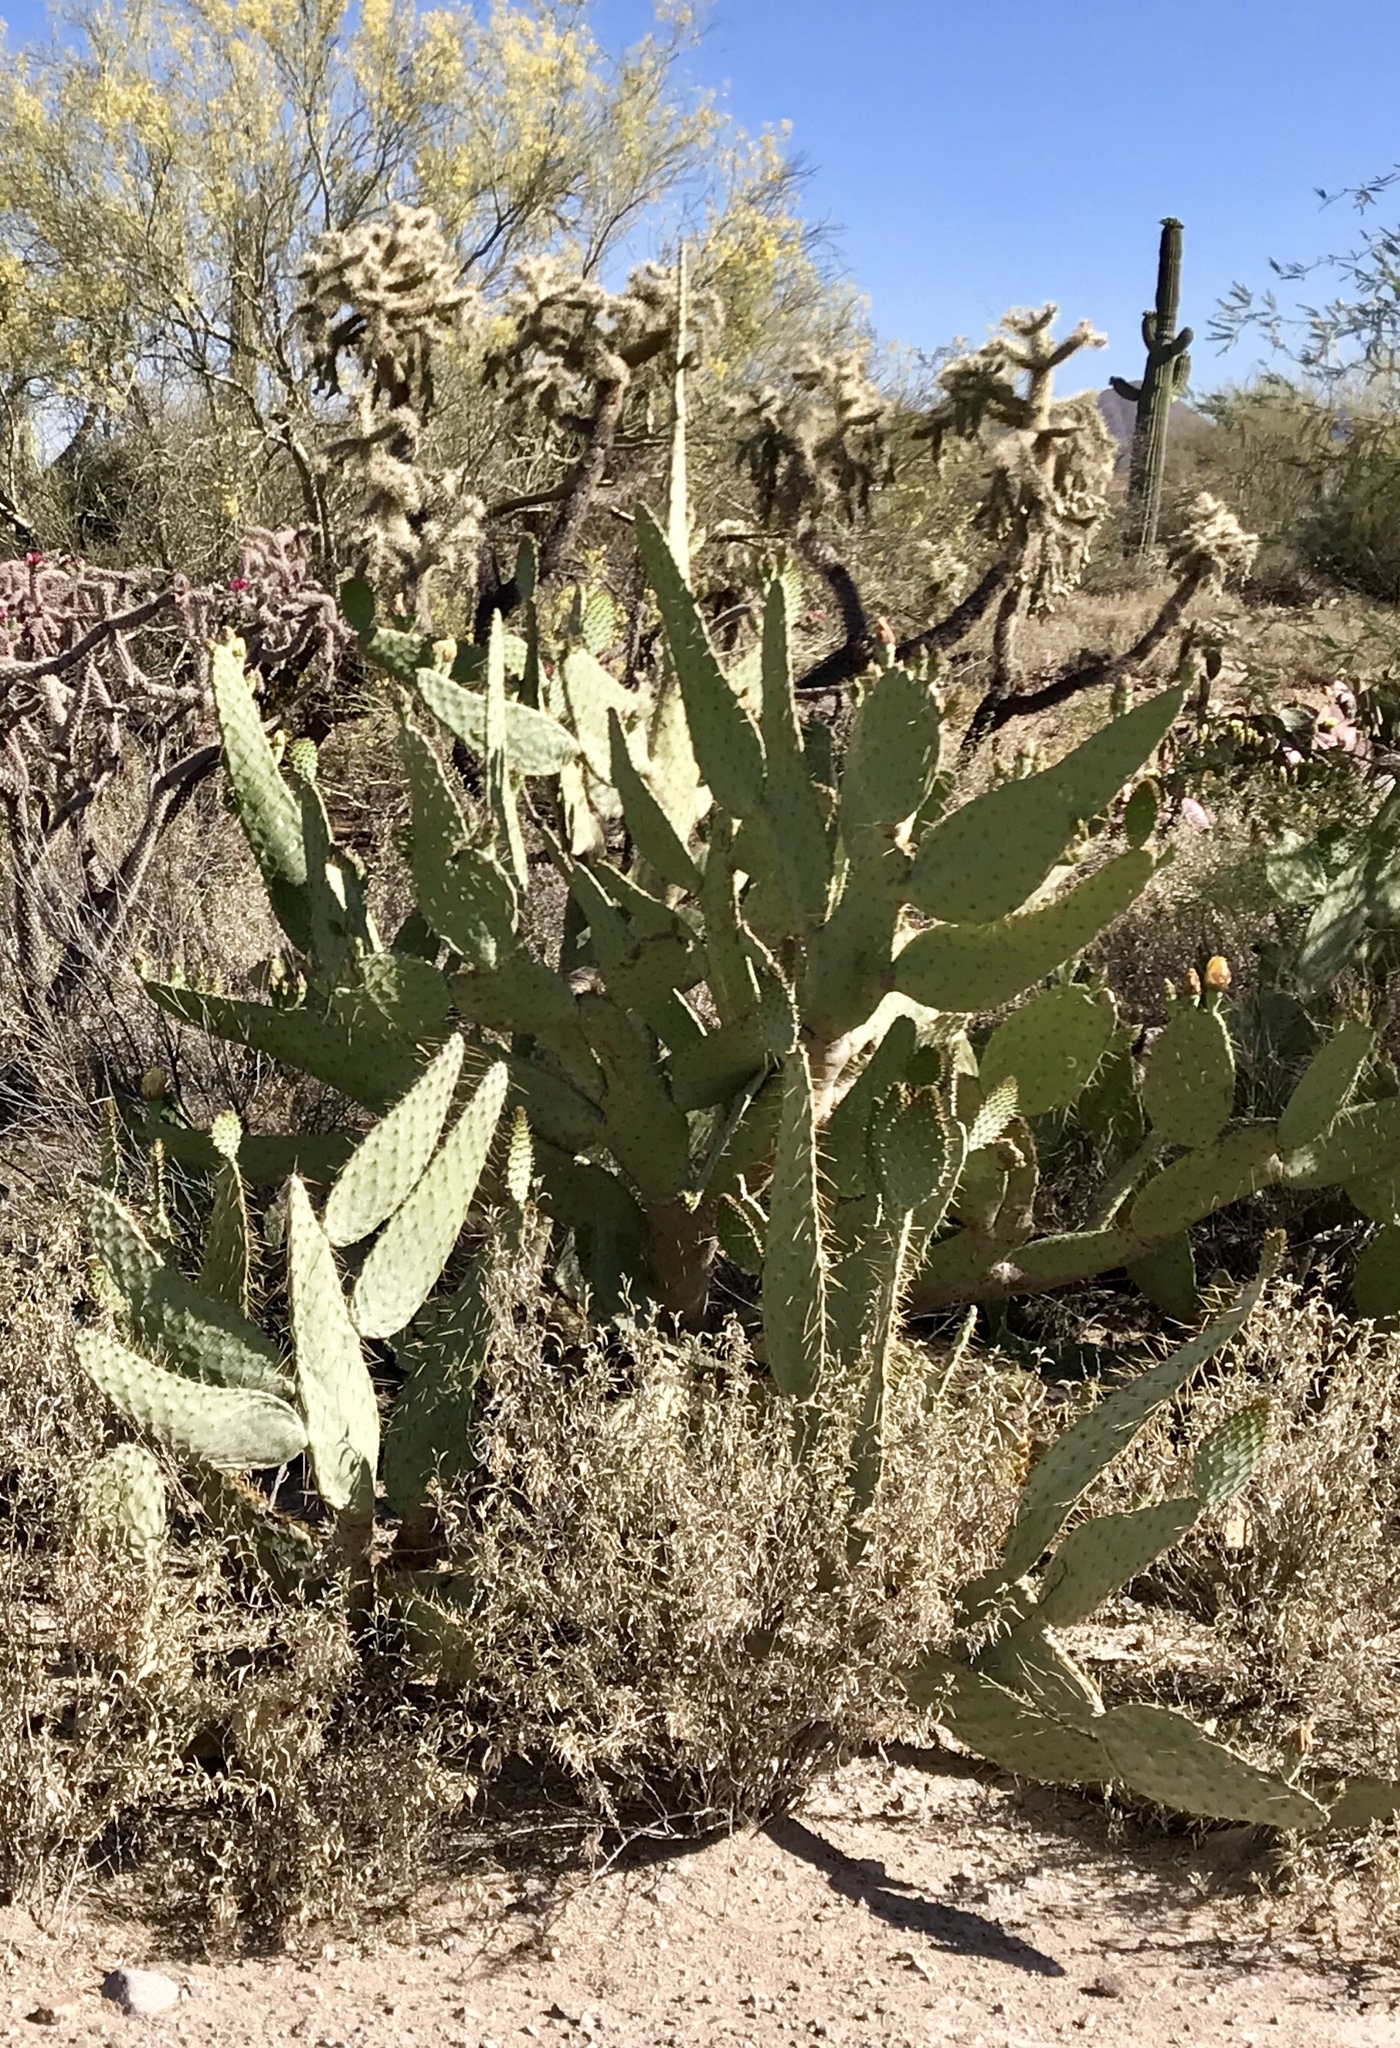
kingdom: Plantae
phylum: Tracheophyta
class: Magnoliopsida
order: Caryophyllales
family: Cactaceae
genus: Opuntia
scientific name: Opuntia engelmannii
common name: Cactus-apple
